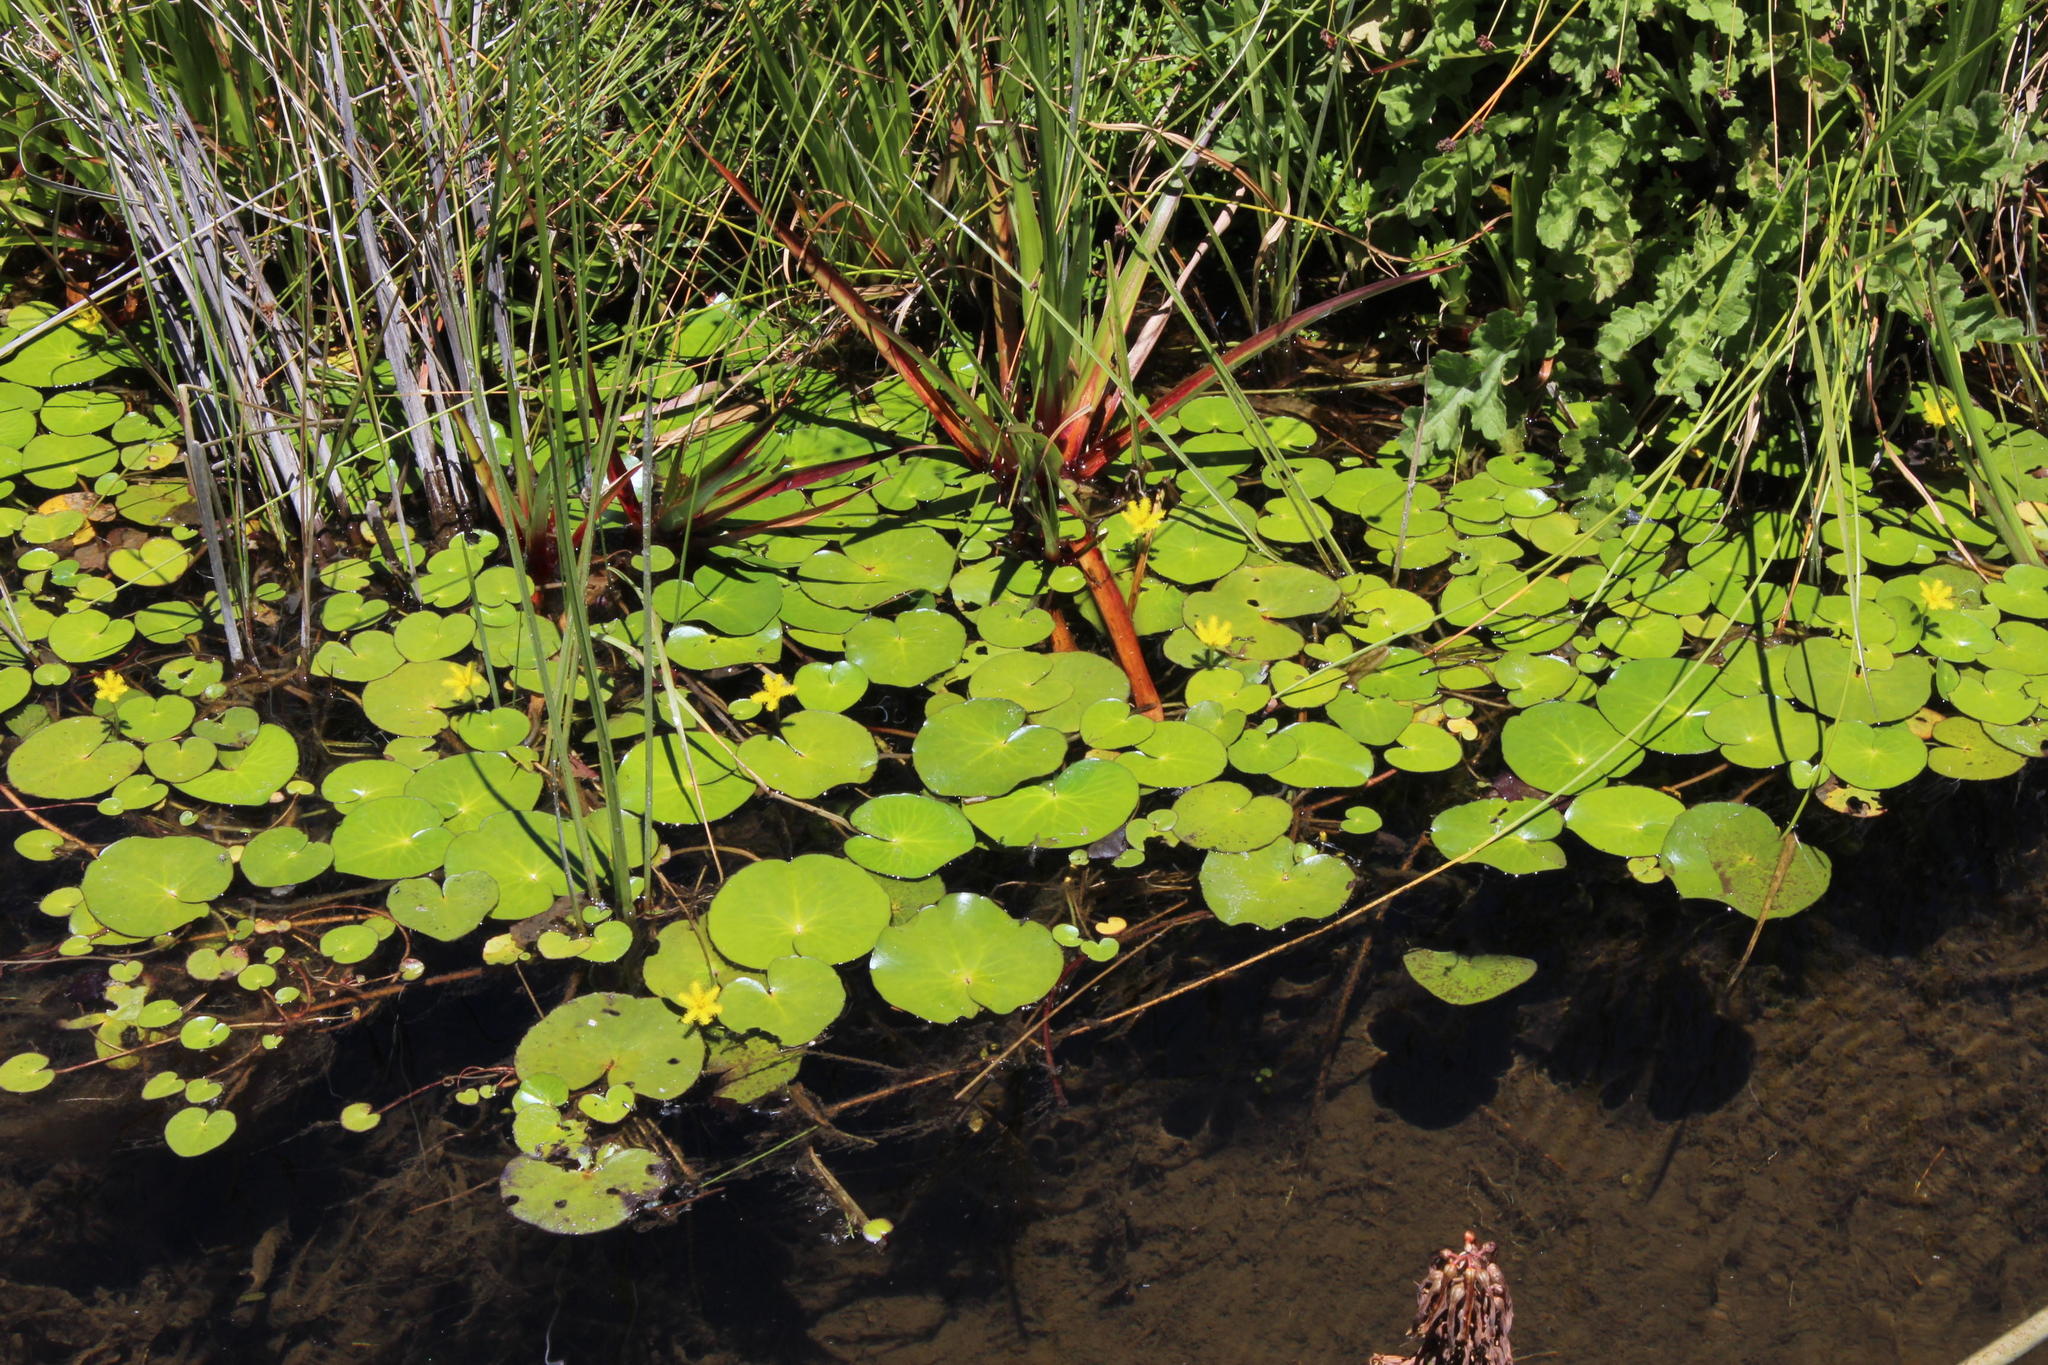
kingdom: Plantae
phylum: Tracheophyta
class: Magnoliopsida
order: Asterales
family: Menyanthaceae
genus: Nymphoides
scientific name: Nymphoides thunbergiana
